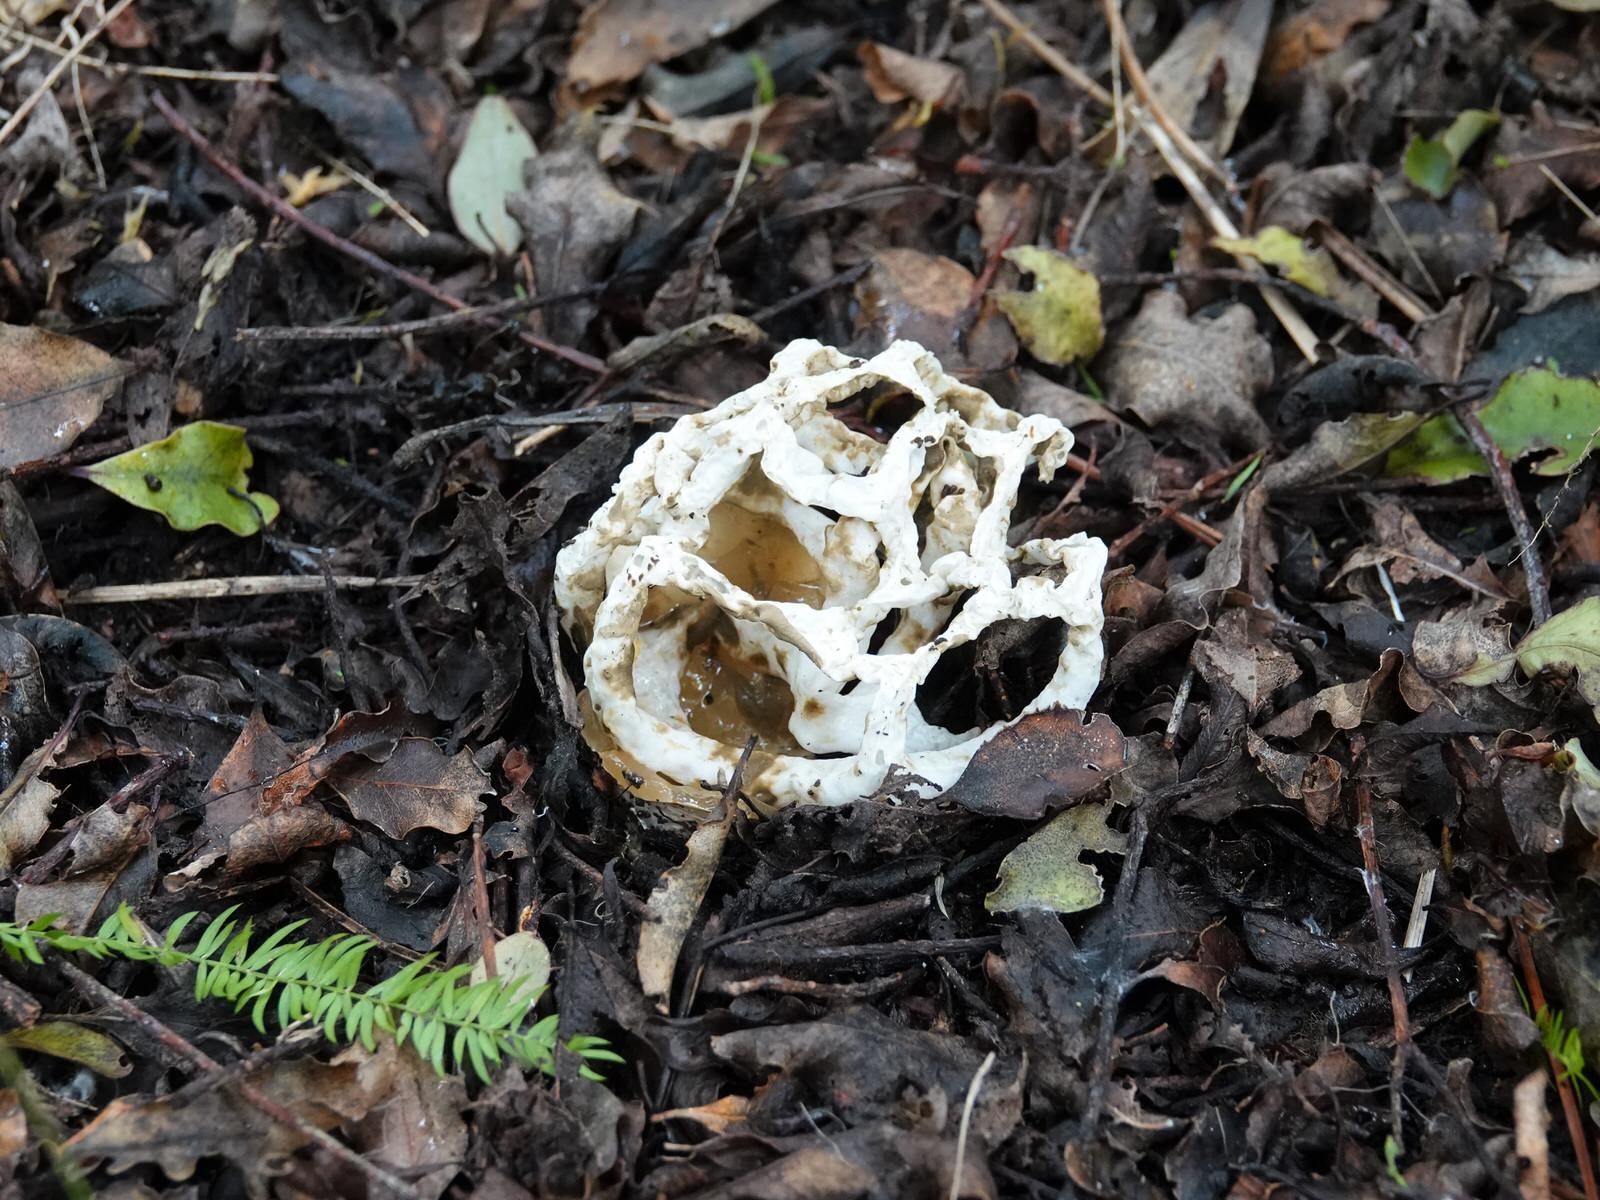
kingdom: Fungi
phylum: Basidiomycota
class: Agaricomycetes
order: Phallales
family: Phallaceae
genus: Ileodictyon
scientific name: Ileodictyon cibarium
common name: Basket fungus
